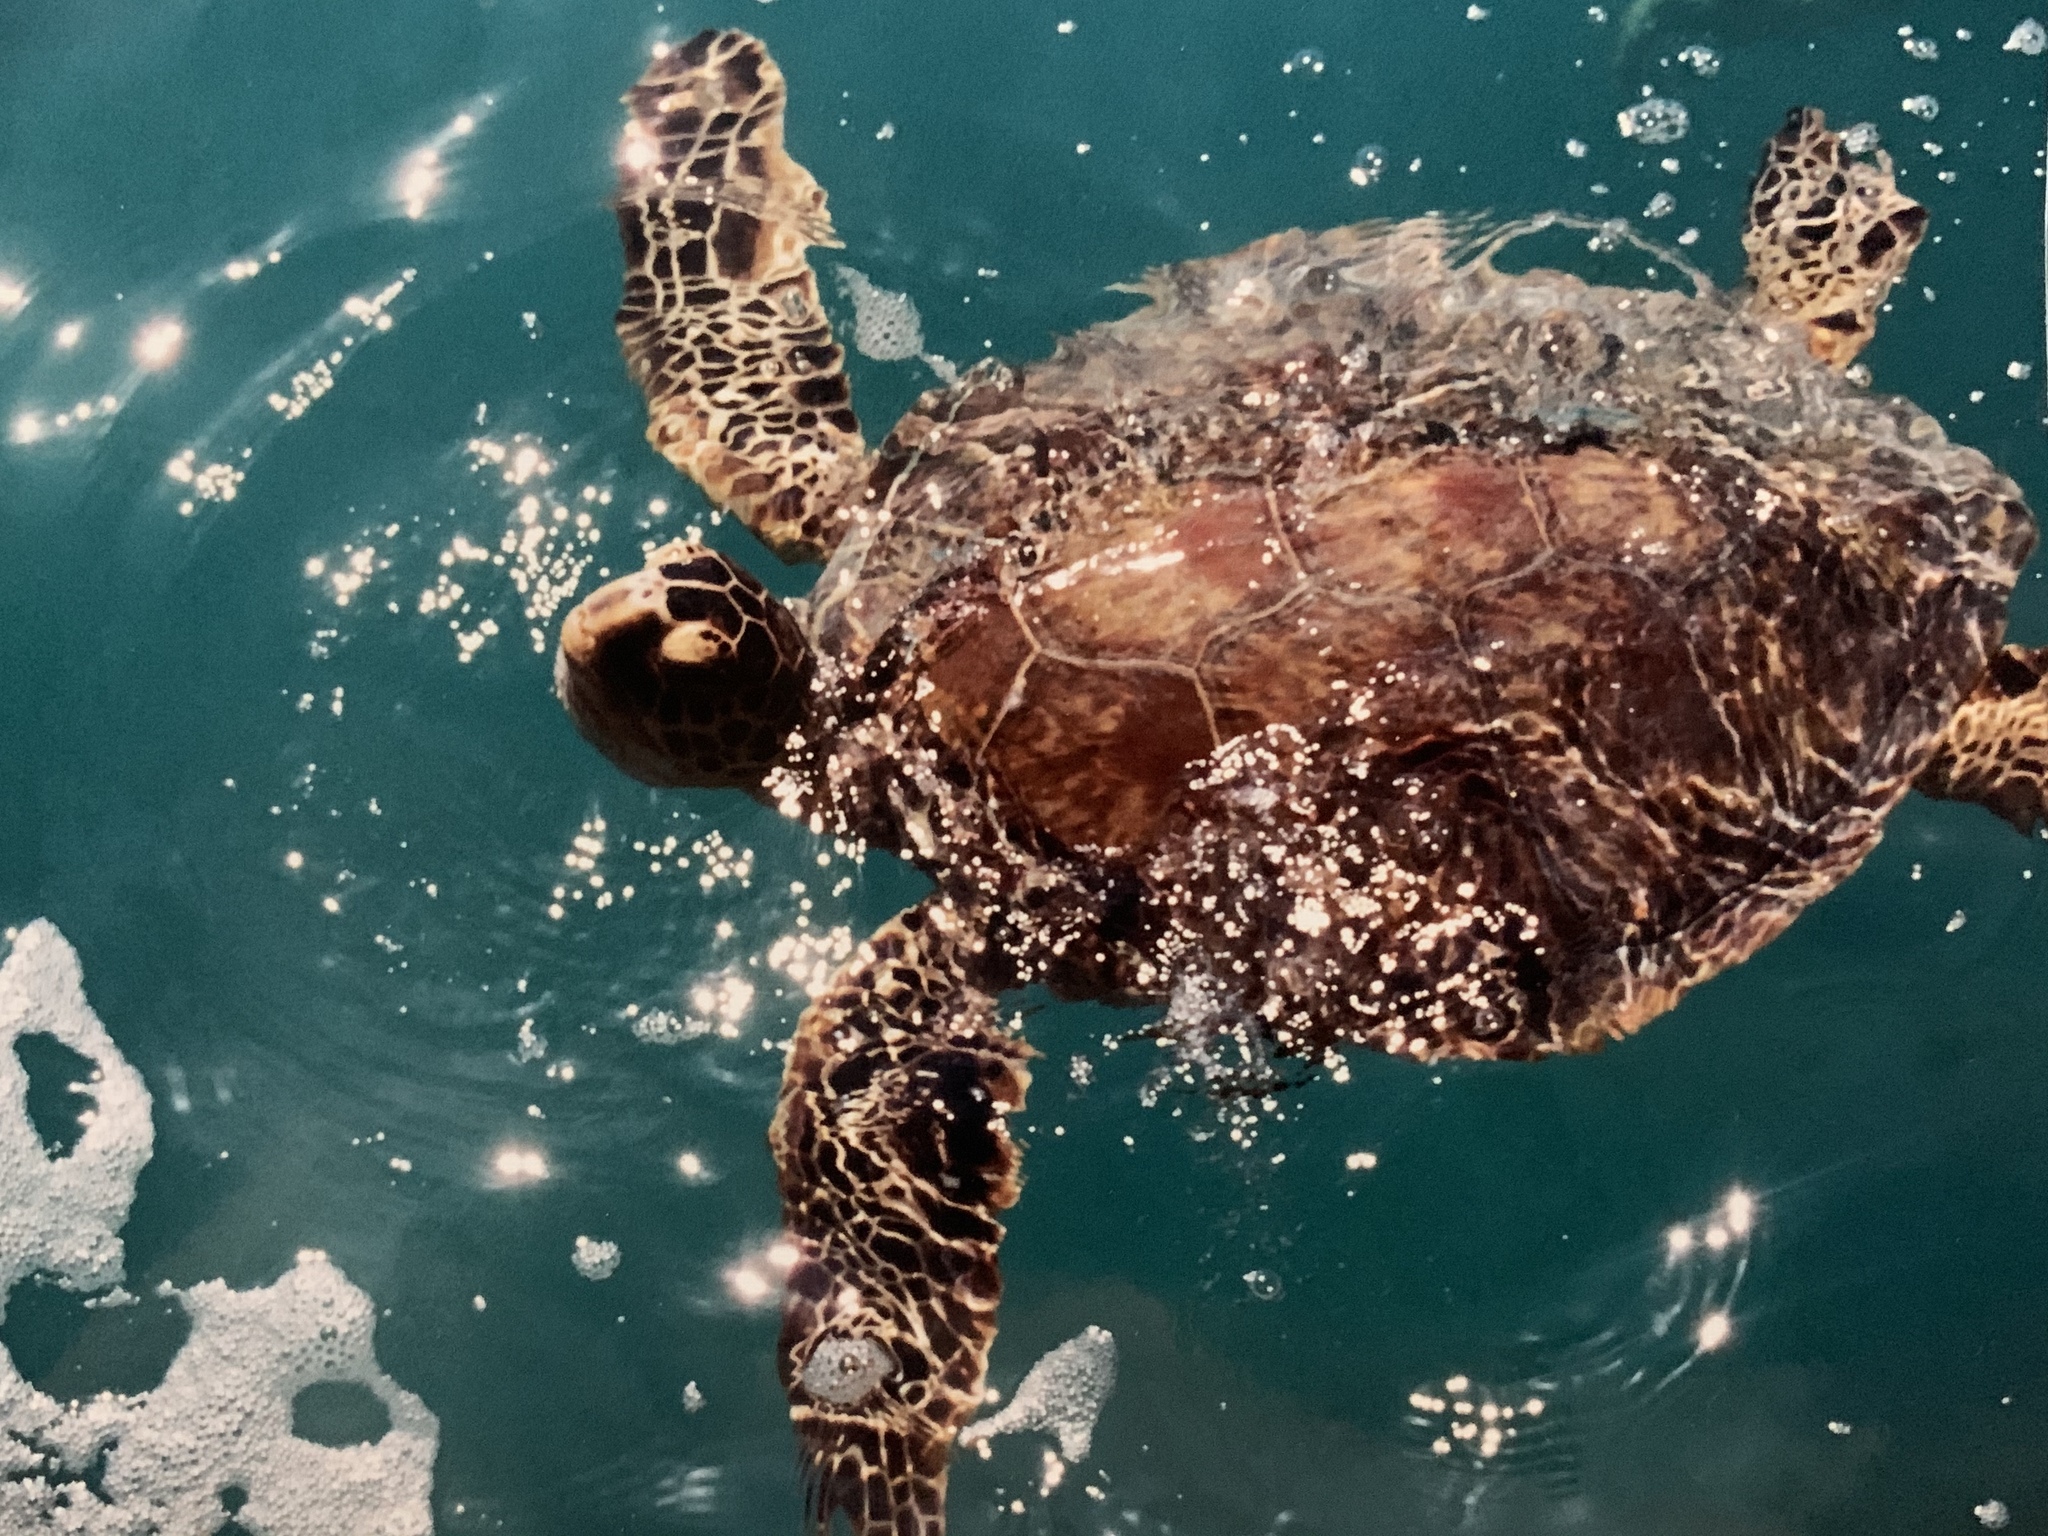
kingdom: Animalia
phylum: Chordata
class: Testudines
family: Cheloniidae
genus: Chelonia
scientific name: Chelonia mydas
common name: Green turtle
